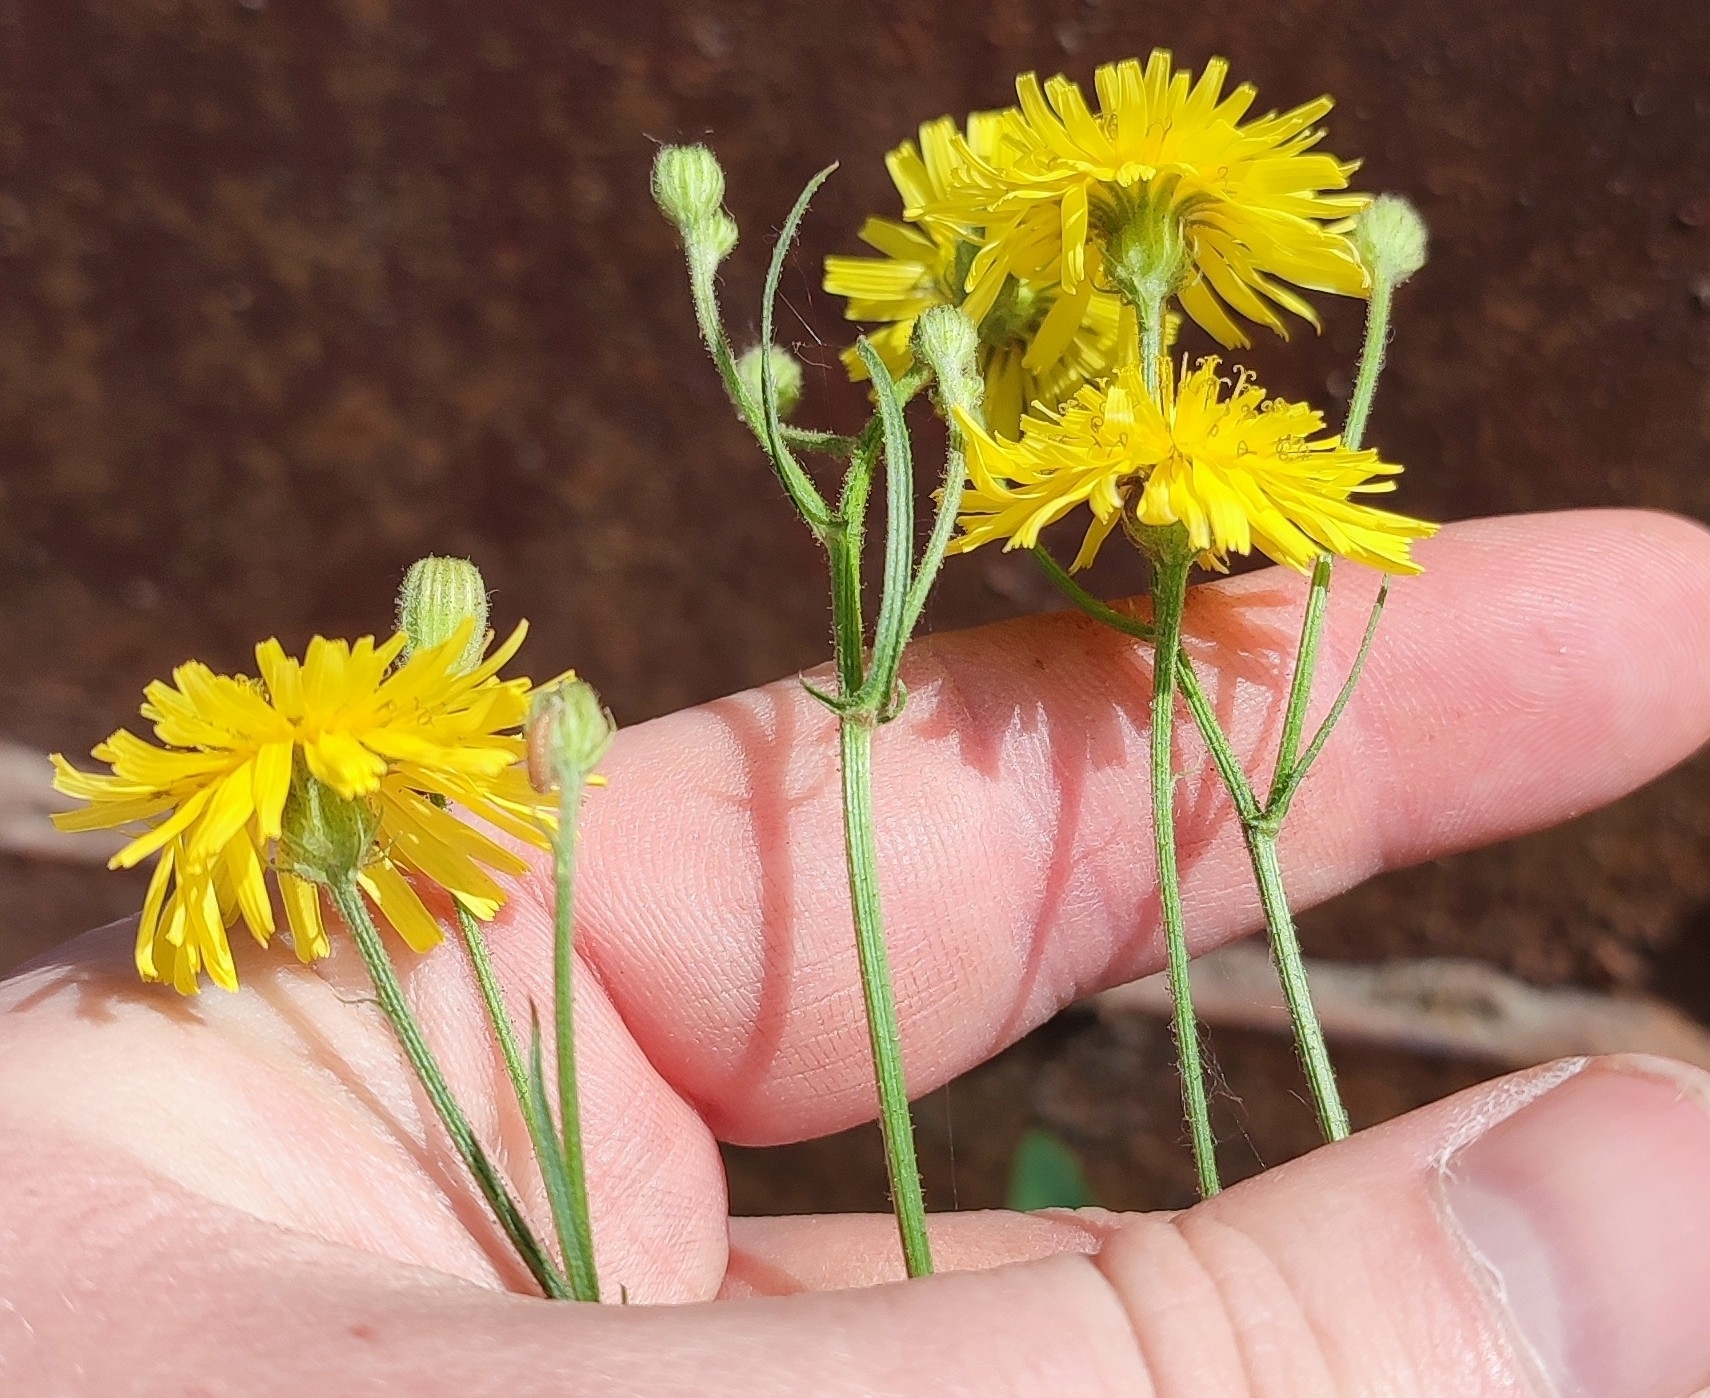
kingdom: Plantae
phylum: Tracheophyta
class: Magnoliopsida
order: Asterales
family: Asteraceae
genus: Crepis
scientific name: Crepis tectorum
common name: Narrow-leaved hawk's-beard
